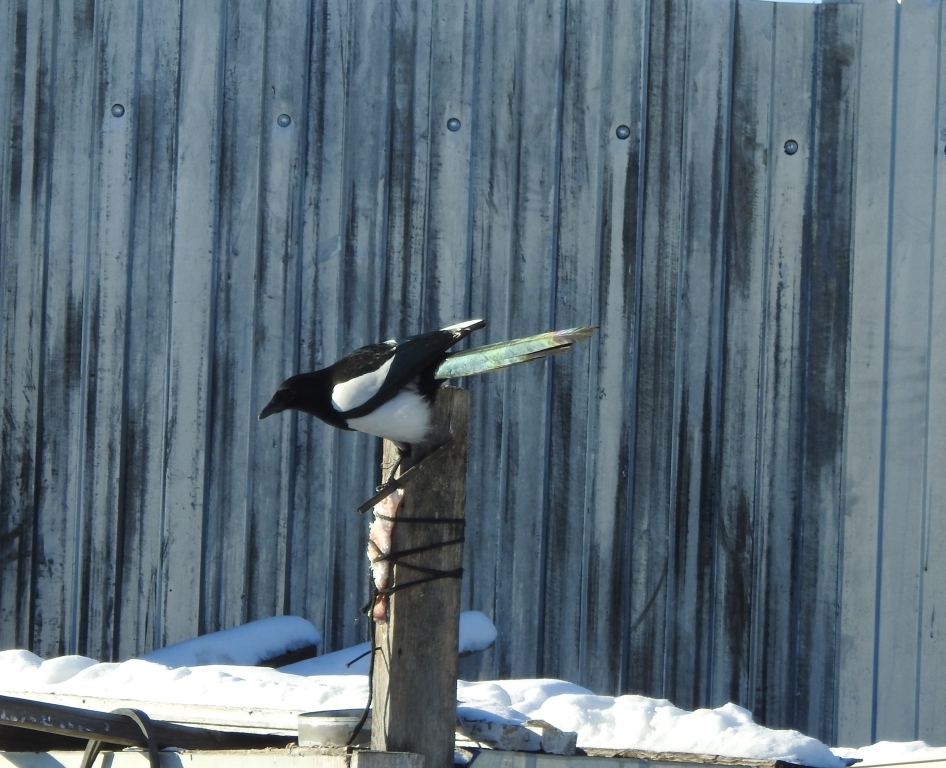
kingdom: Animalia
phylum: Chordata
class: Aves
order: Passeriformes
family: Corvidae
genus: Pica
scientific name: Pica pica
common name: Eurasian magpie
